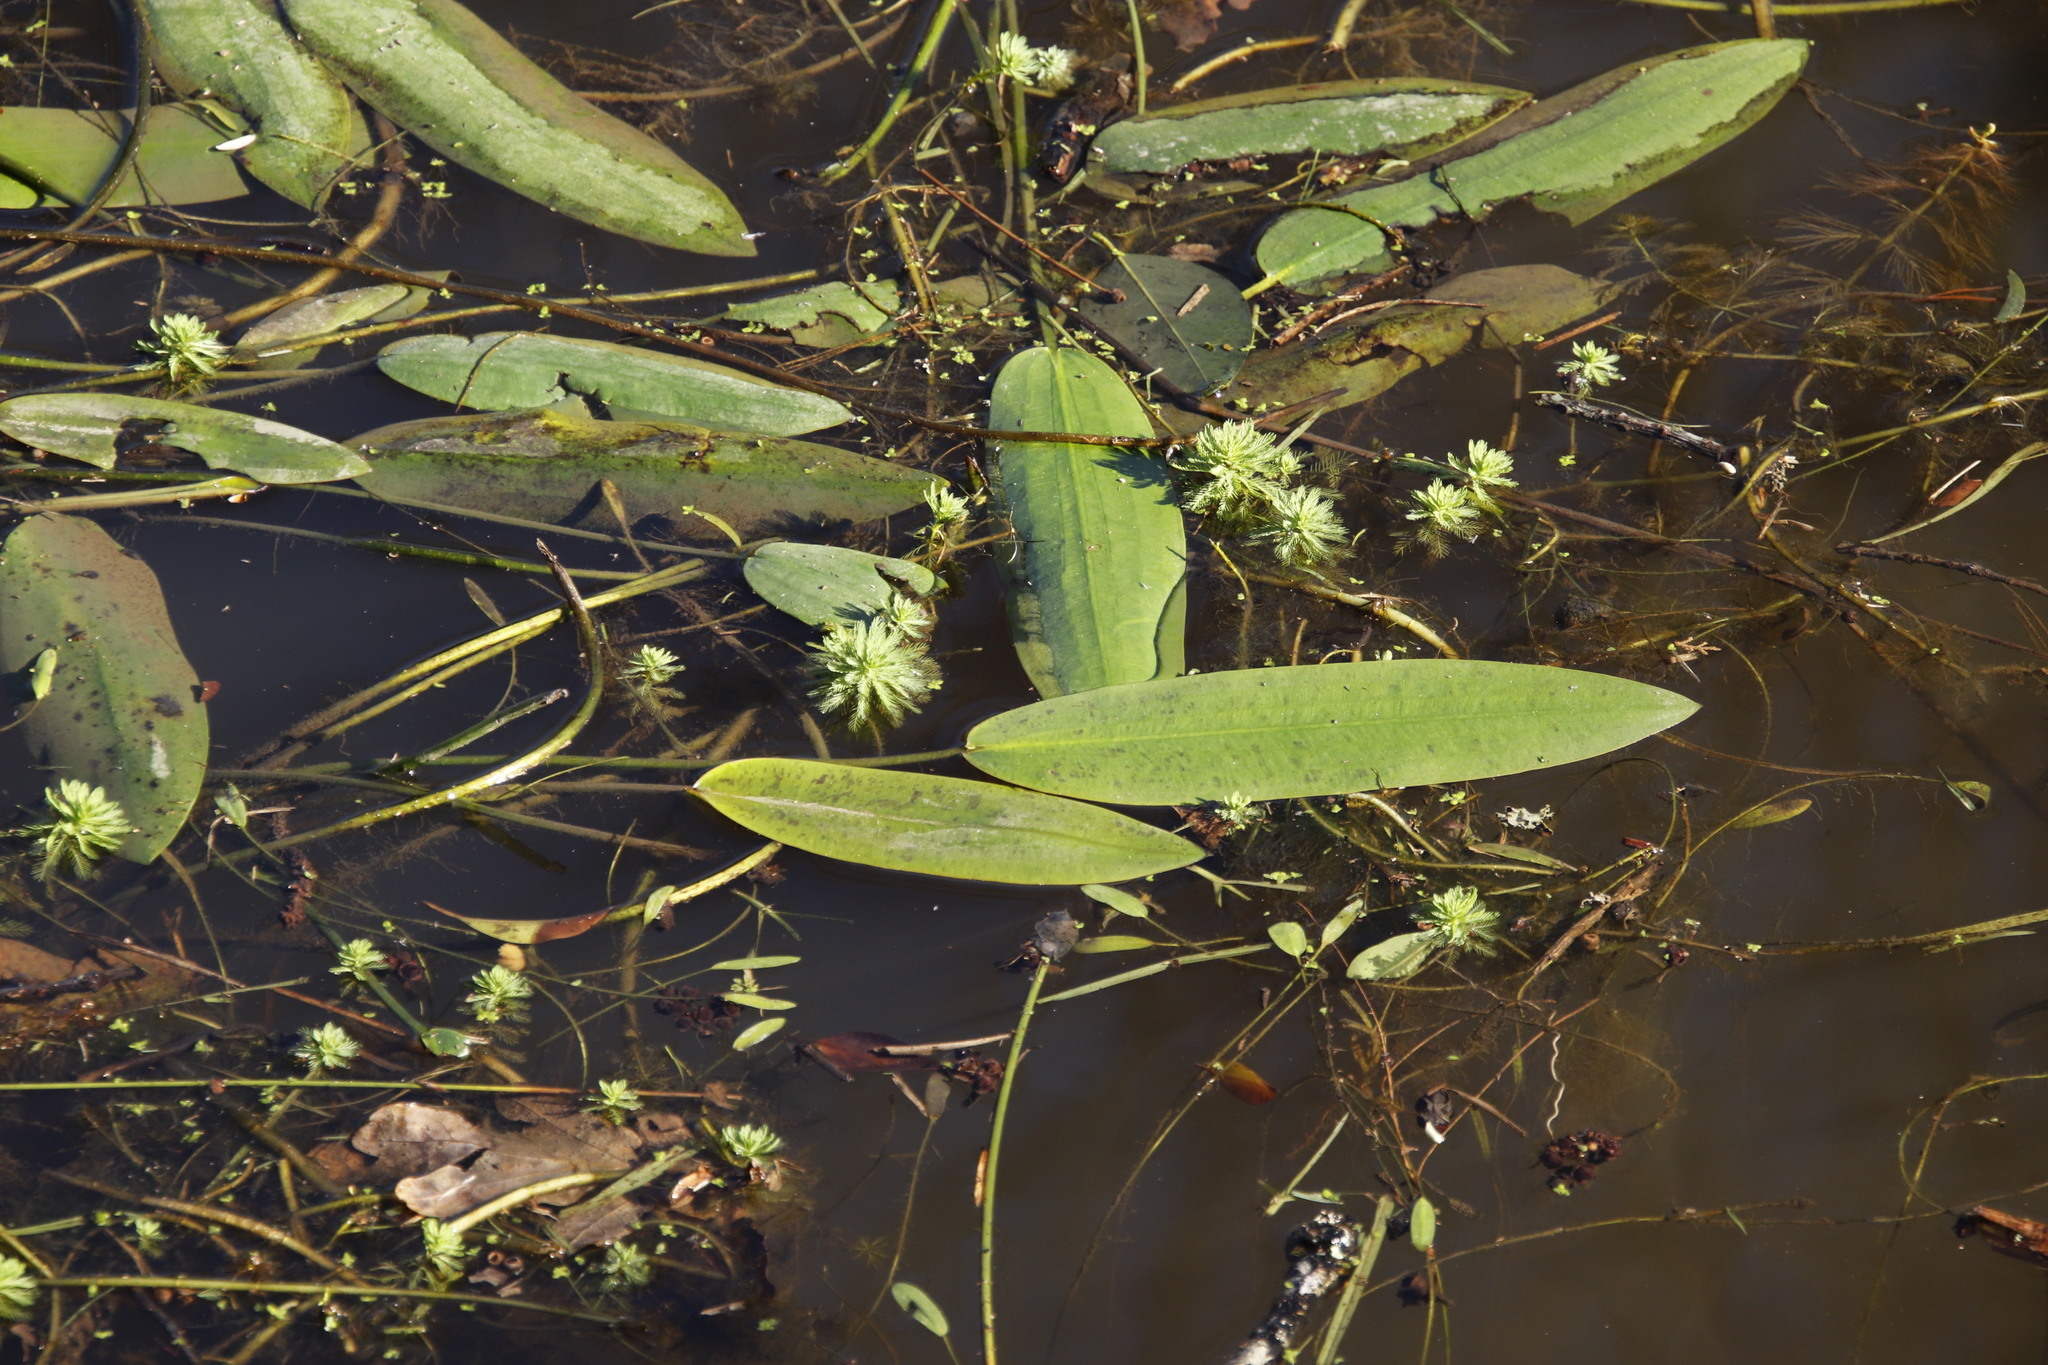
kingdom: Plantae
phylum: Tracheophyta
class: Liliopsida
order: Alismatales
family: Aponogetonaceae
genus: Aponogeton
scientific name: Aponogeton distachyos
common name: Cape-pondweed
